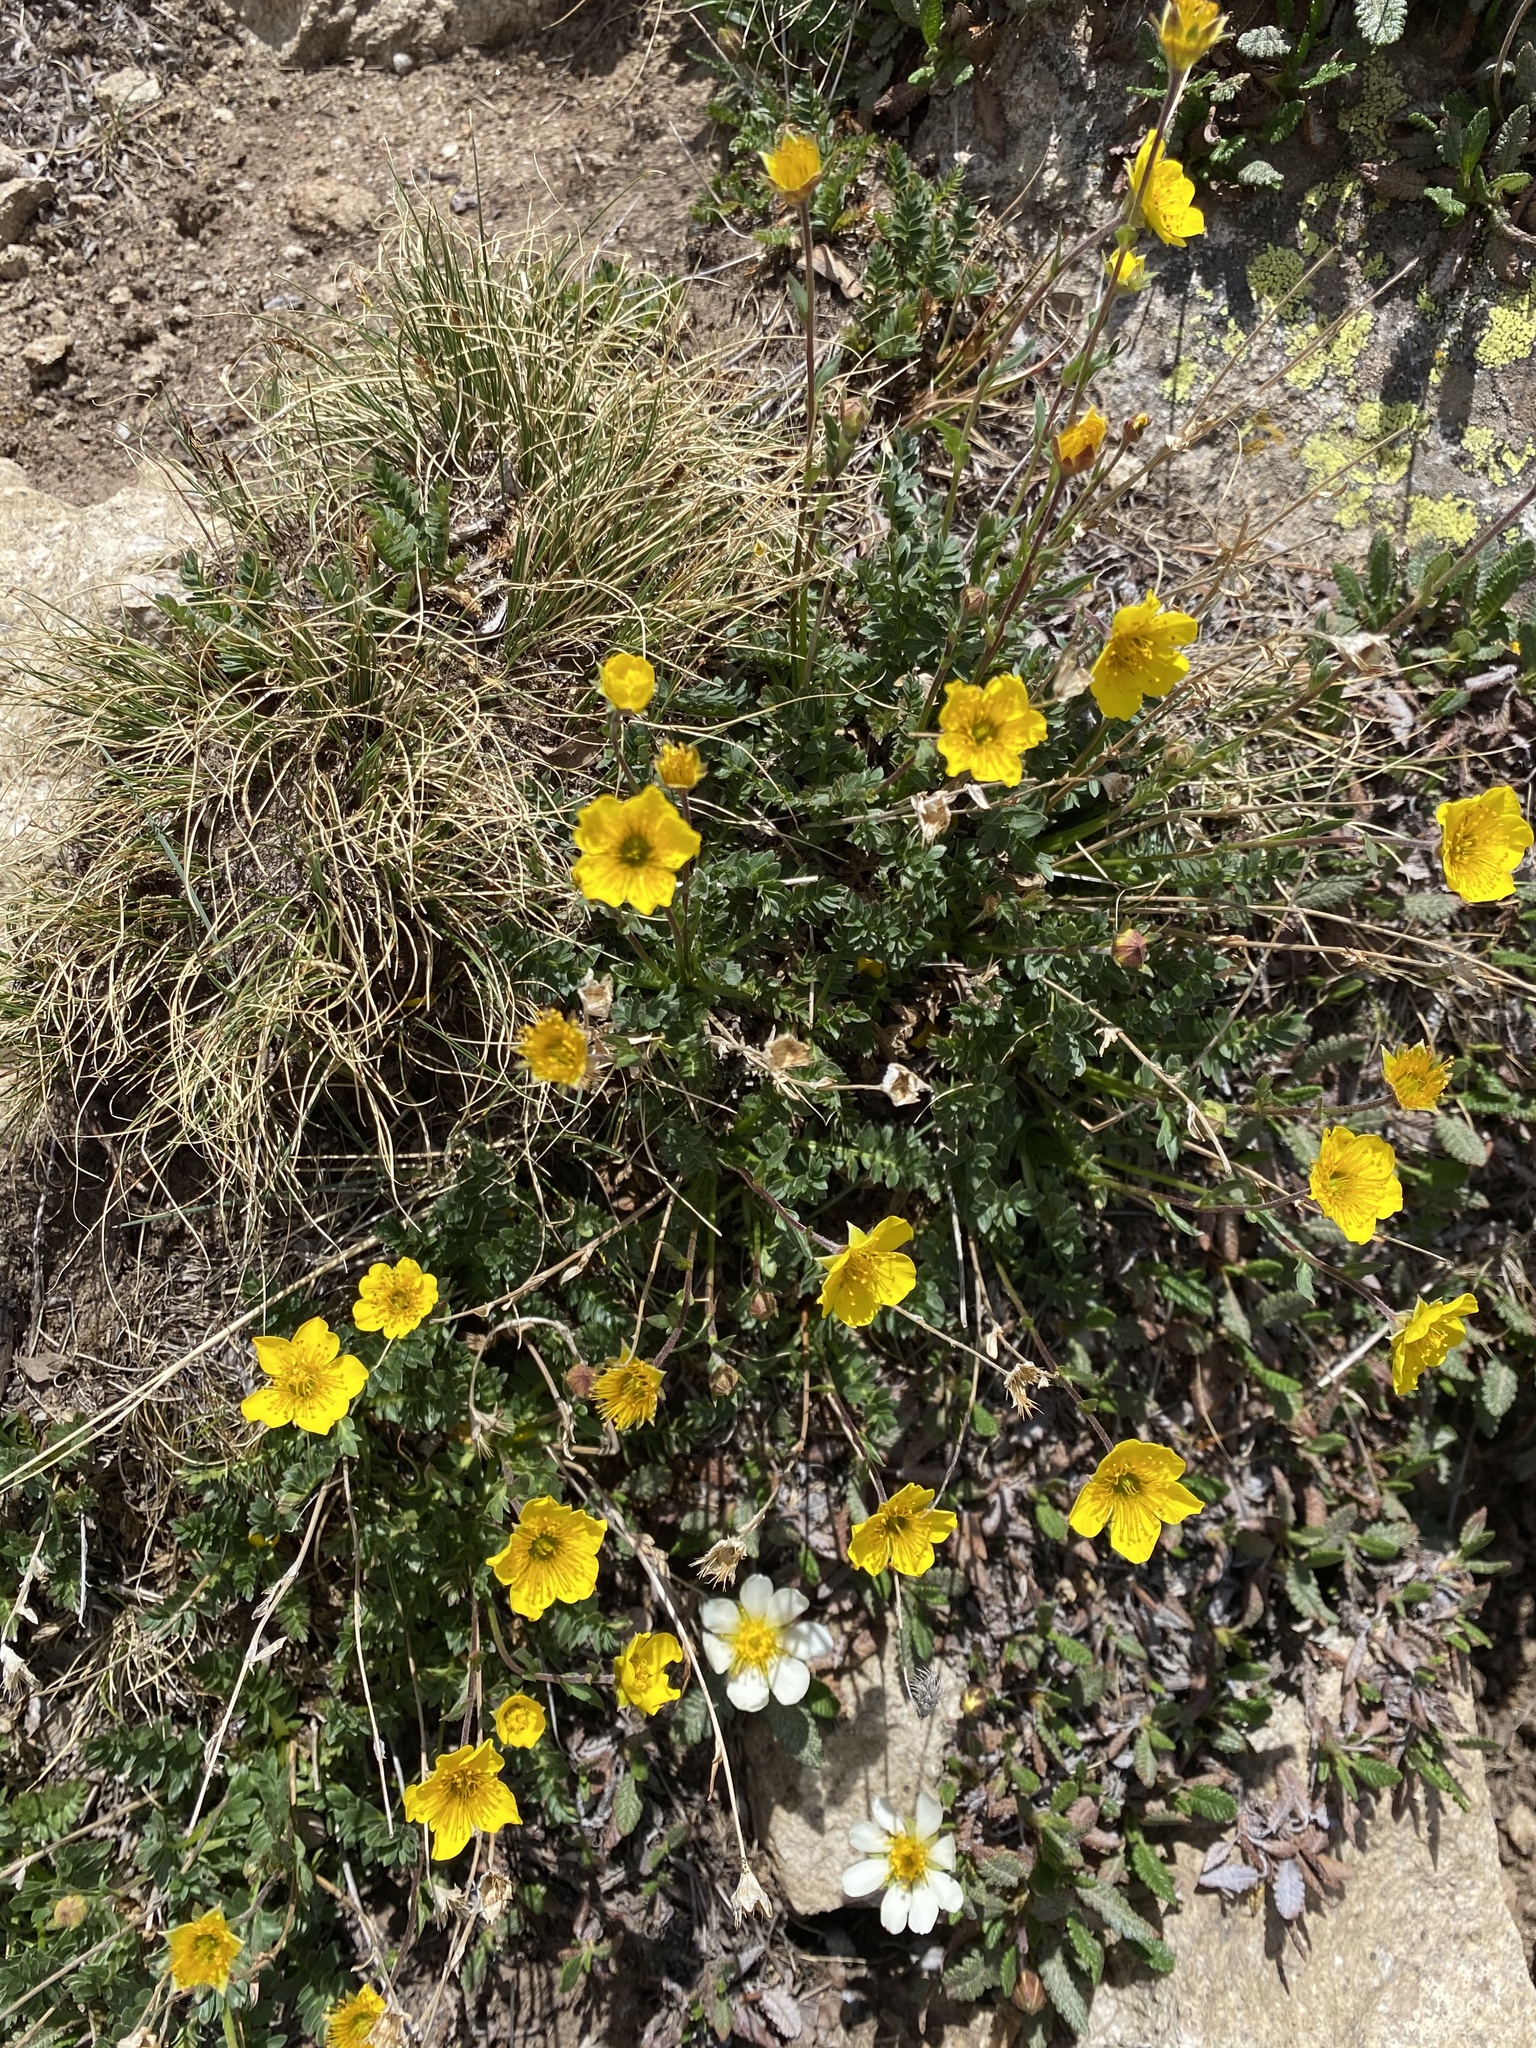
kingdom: Plantae
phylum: Tracheophyta
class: Magnoliopsida
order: Rosales
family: Rosaceae
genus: Geum
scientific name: Geum rossii
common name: Alpine avens
